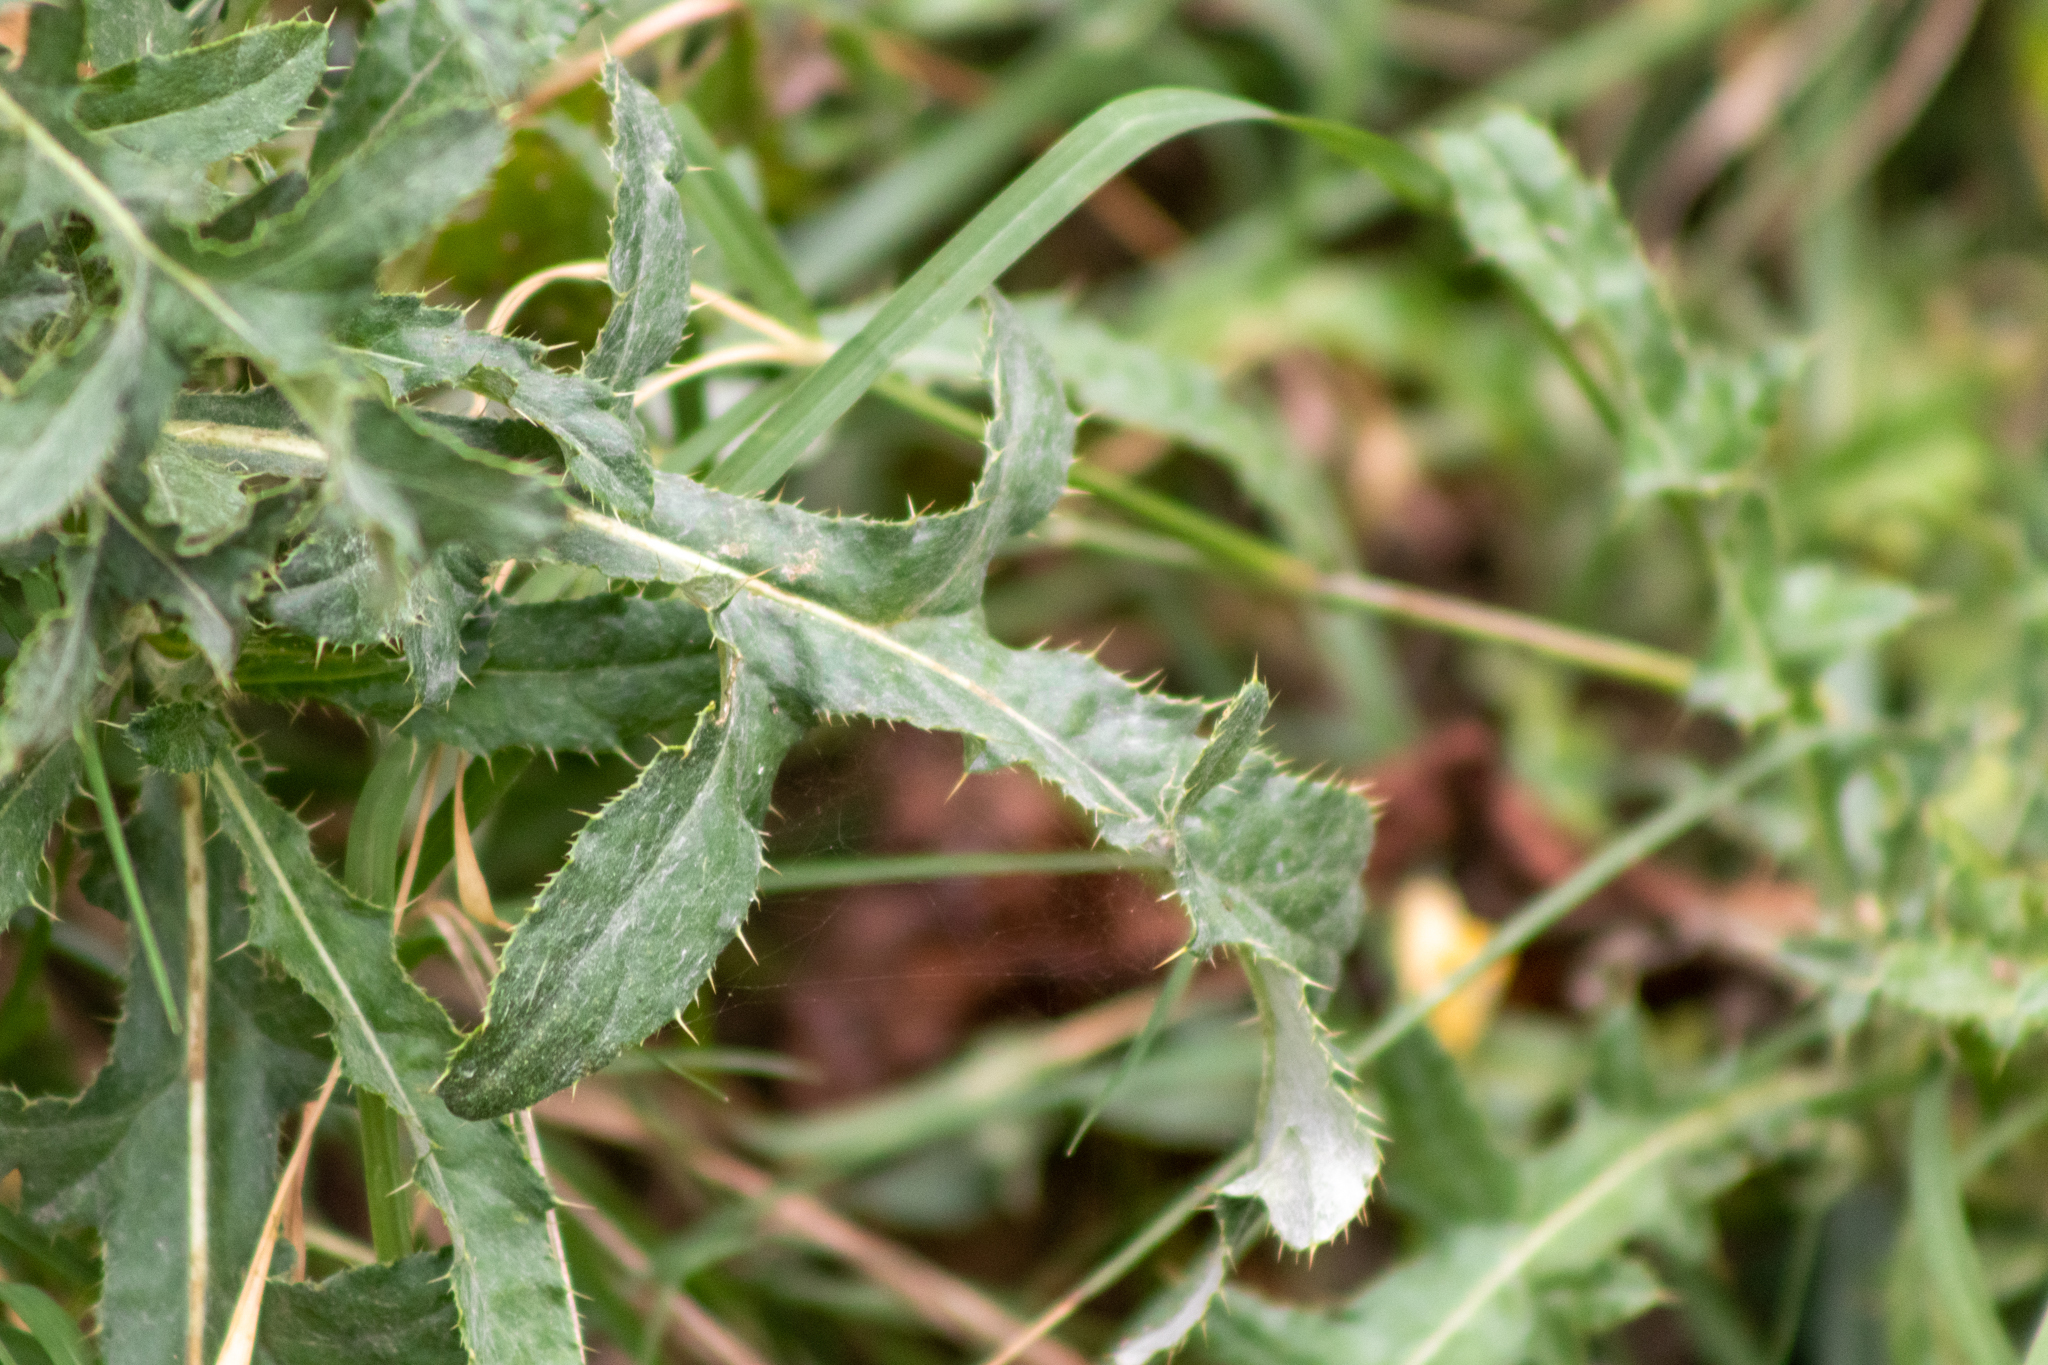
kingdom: Plantae
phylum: Tracheophyta
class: Magnoliopsida
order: Asterales
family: Asteraceae
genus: Cirsium
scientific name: Cirsium arvense
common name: Creeping thistle
